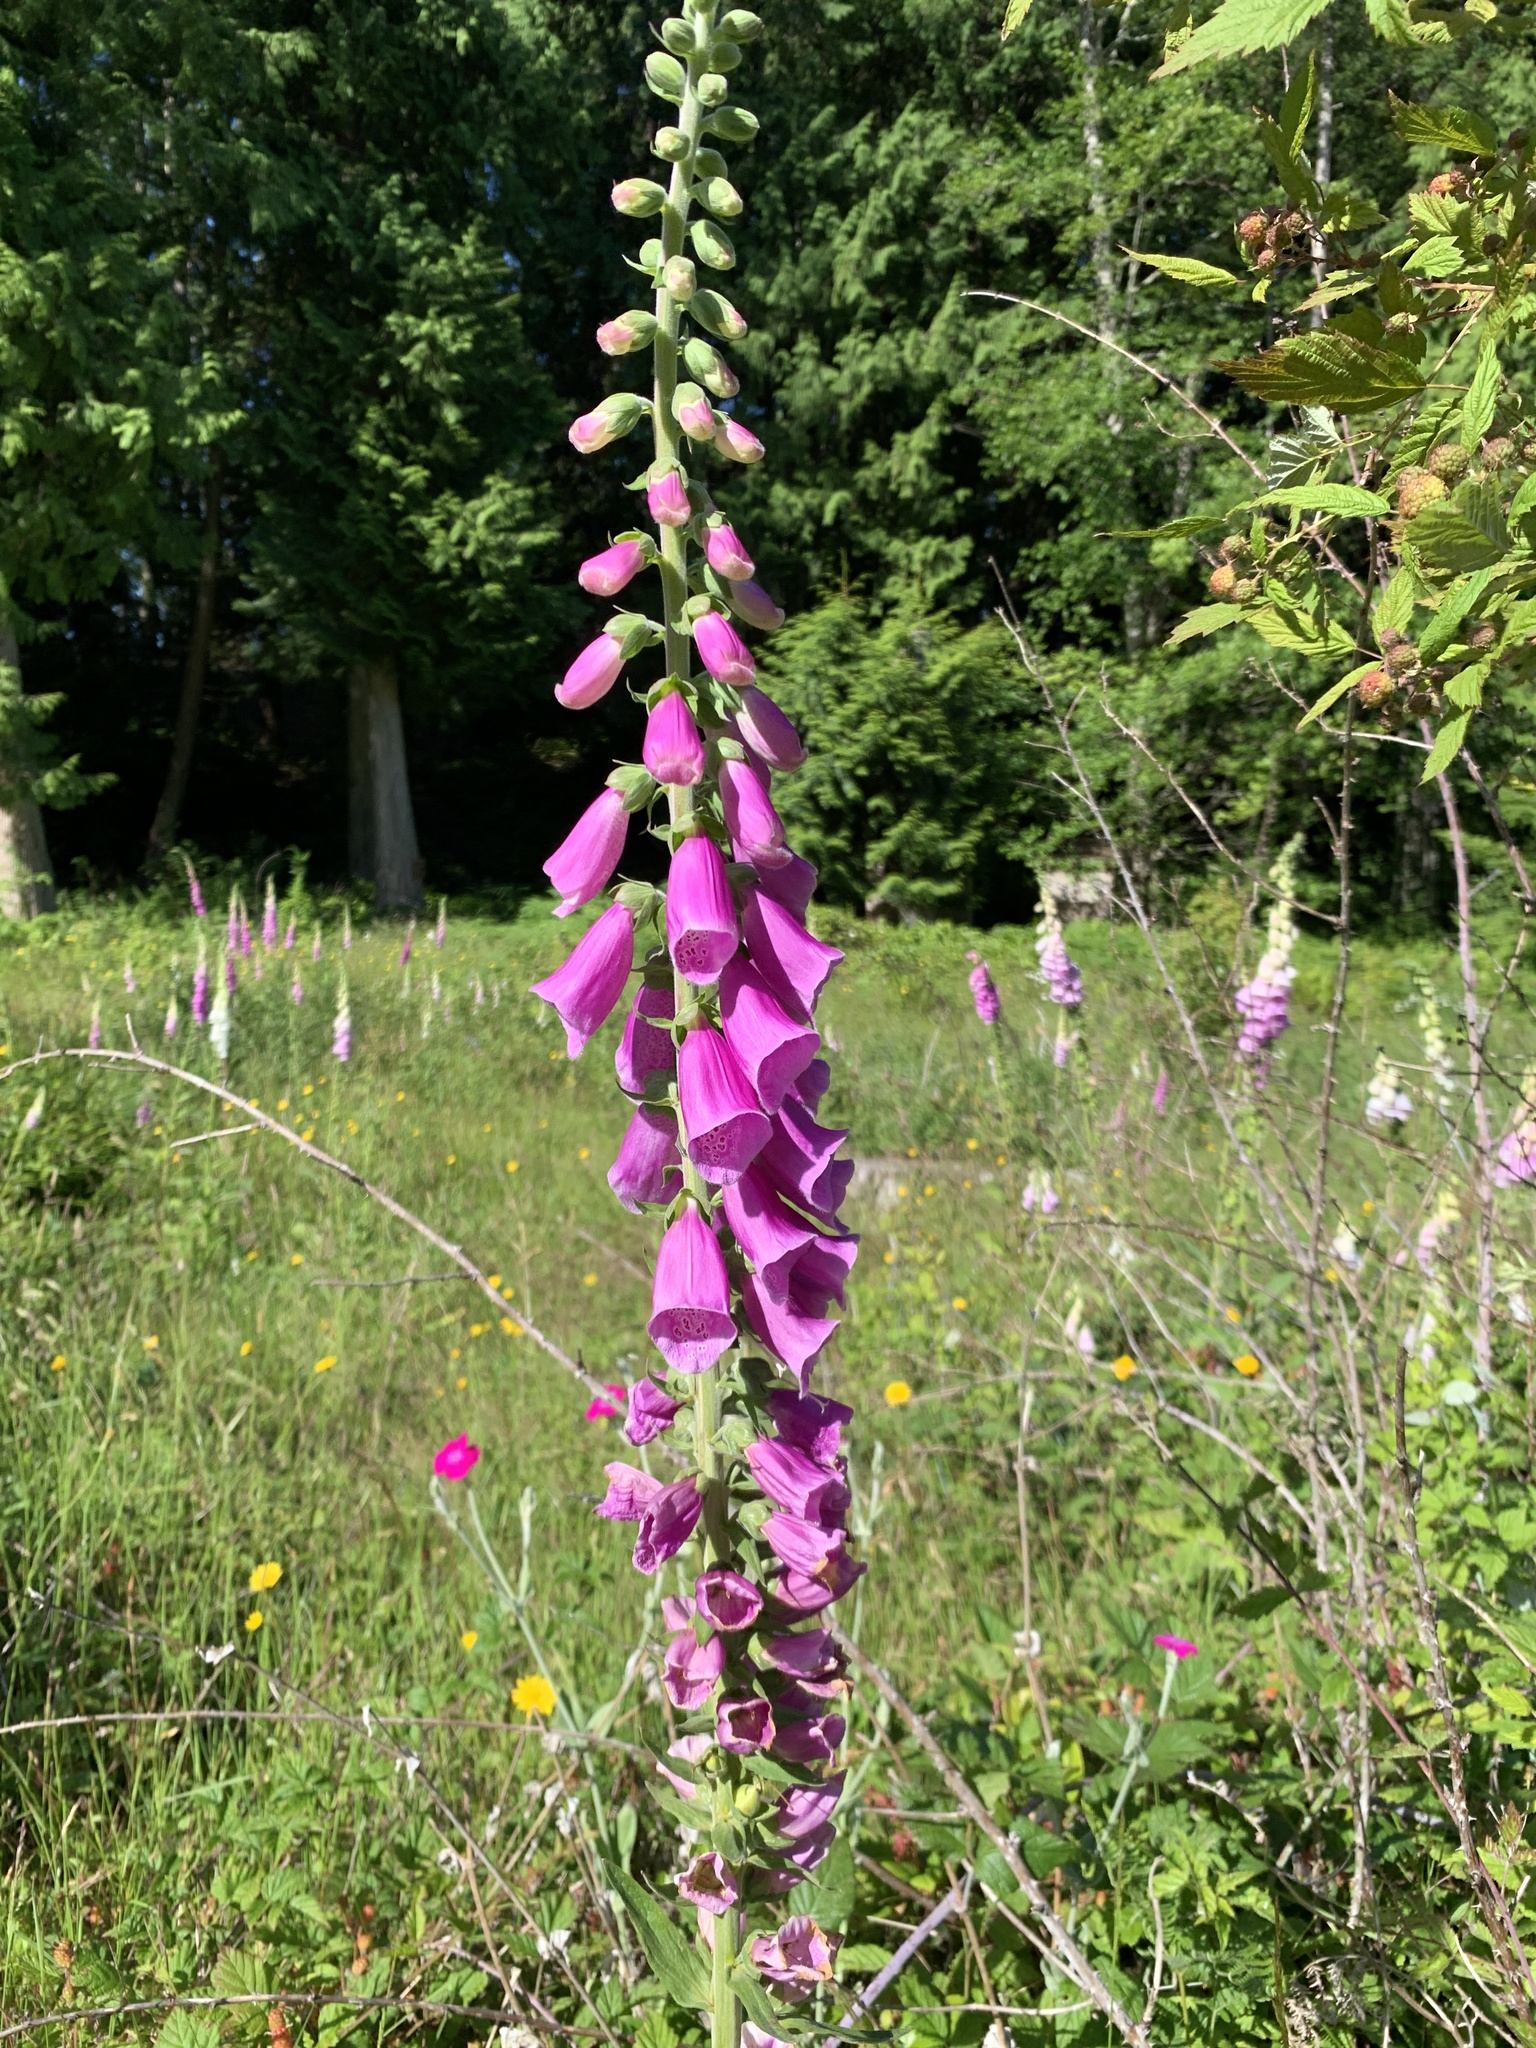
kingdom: Plantae
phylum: Tracheophyta
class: Magnoliopsida
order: Lamiales
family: Plantaginaceae
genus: Digitalis
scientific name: Digitalis purpurea
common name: Foxglove
